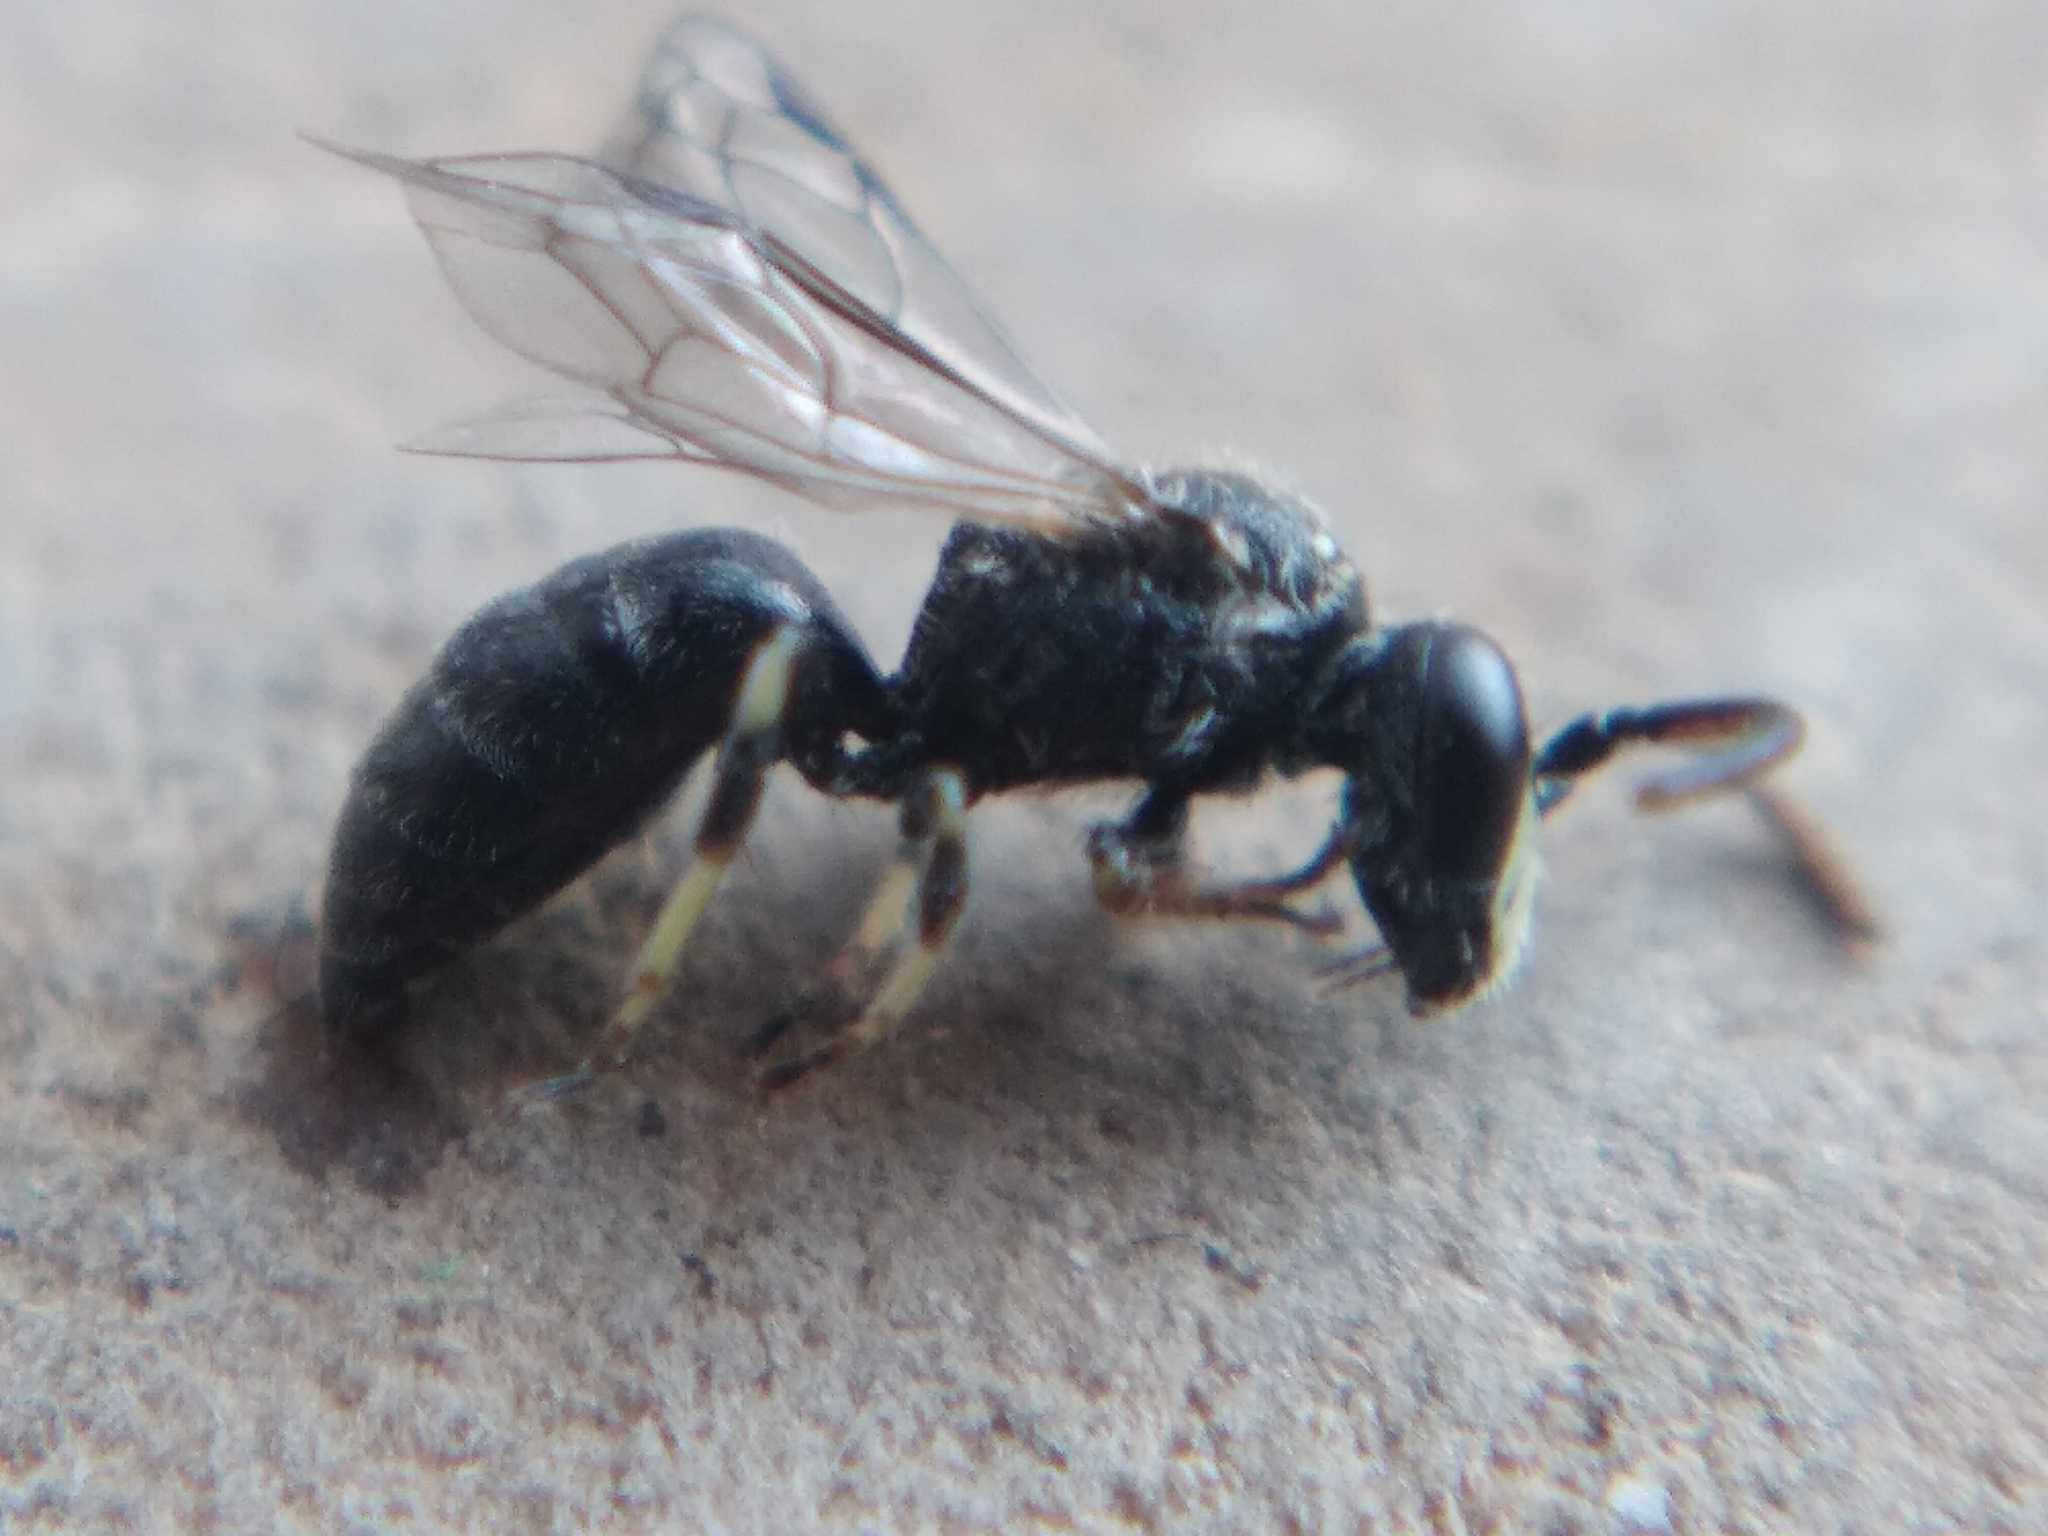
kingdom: Animalia
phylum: Arthropoda
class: Insecta
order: Hymenoptera
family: Colletidae
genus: Hylaeus
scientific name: Hylaeus hyalinatus
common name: Hyaline masked bee
